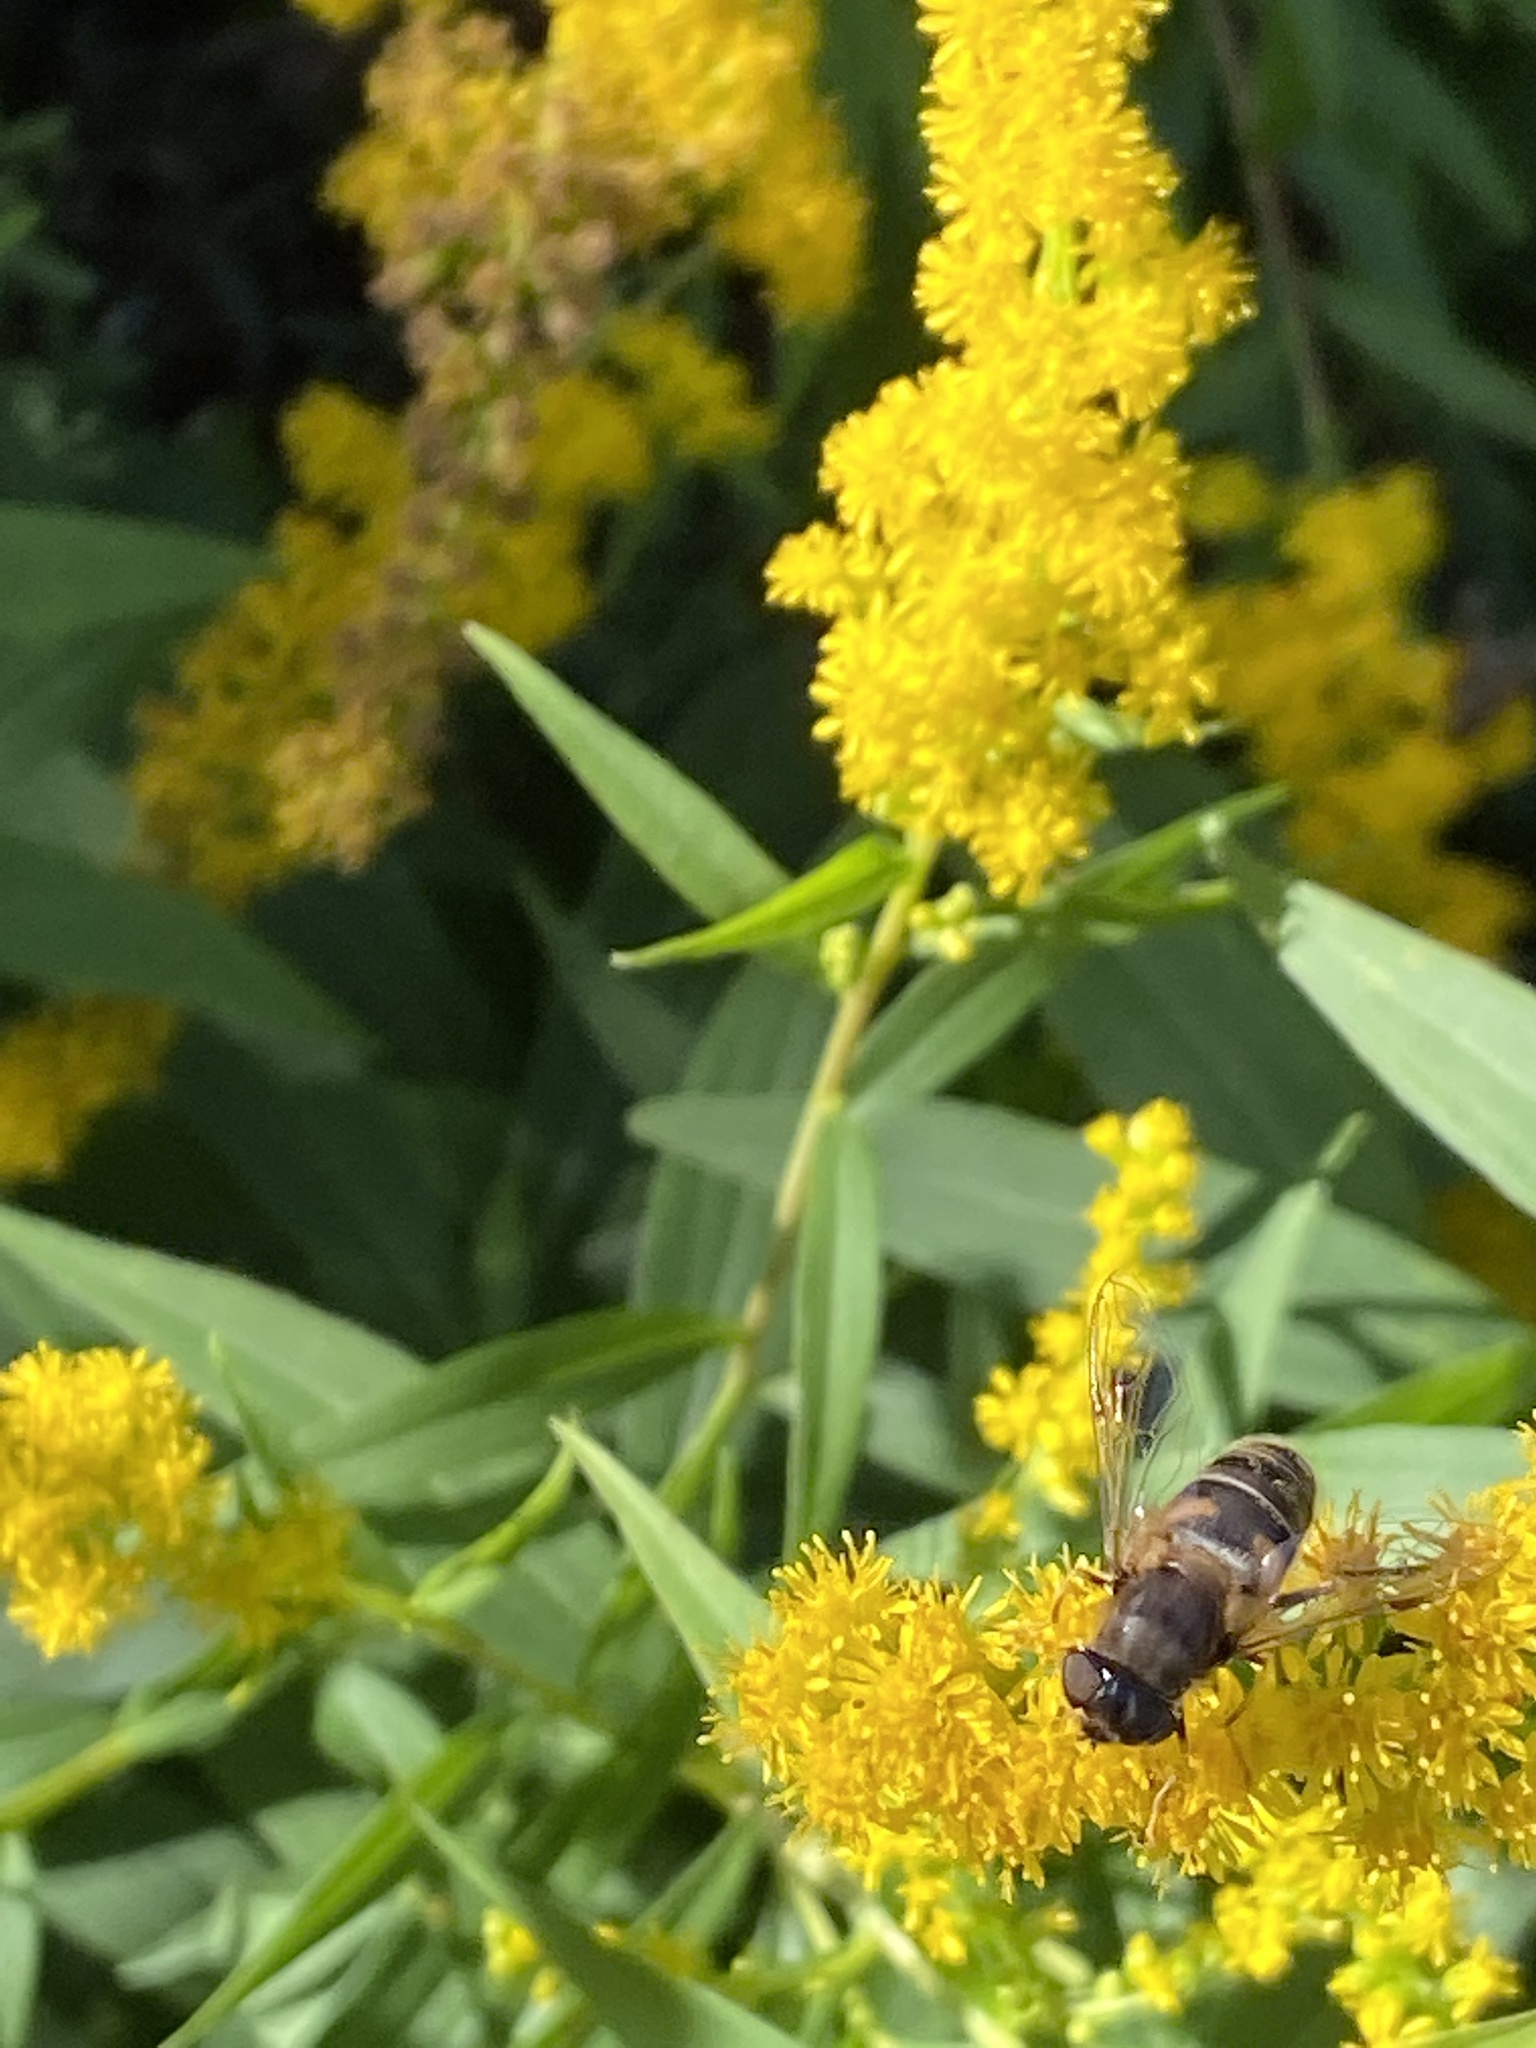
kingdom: Animalia
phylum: Arthropoda
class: Insecta
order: Diptera
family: Syrphidae
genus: Eristalis
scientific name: Eristalis pertinax
